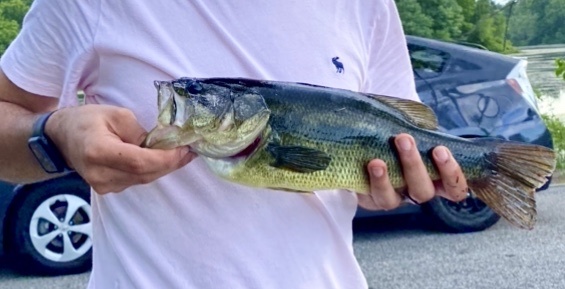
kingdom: Animalia
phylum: Chordata
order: Perciformes
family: Centrarchidae
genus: Micropterus
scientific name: Micropterus
